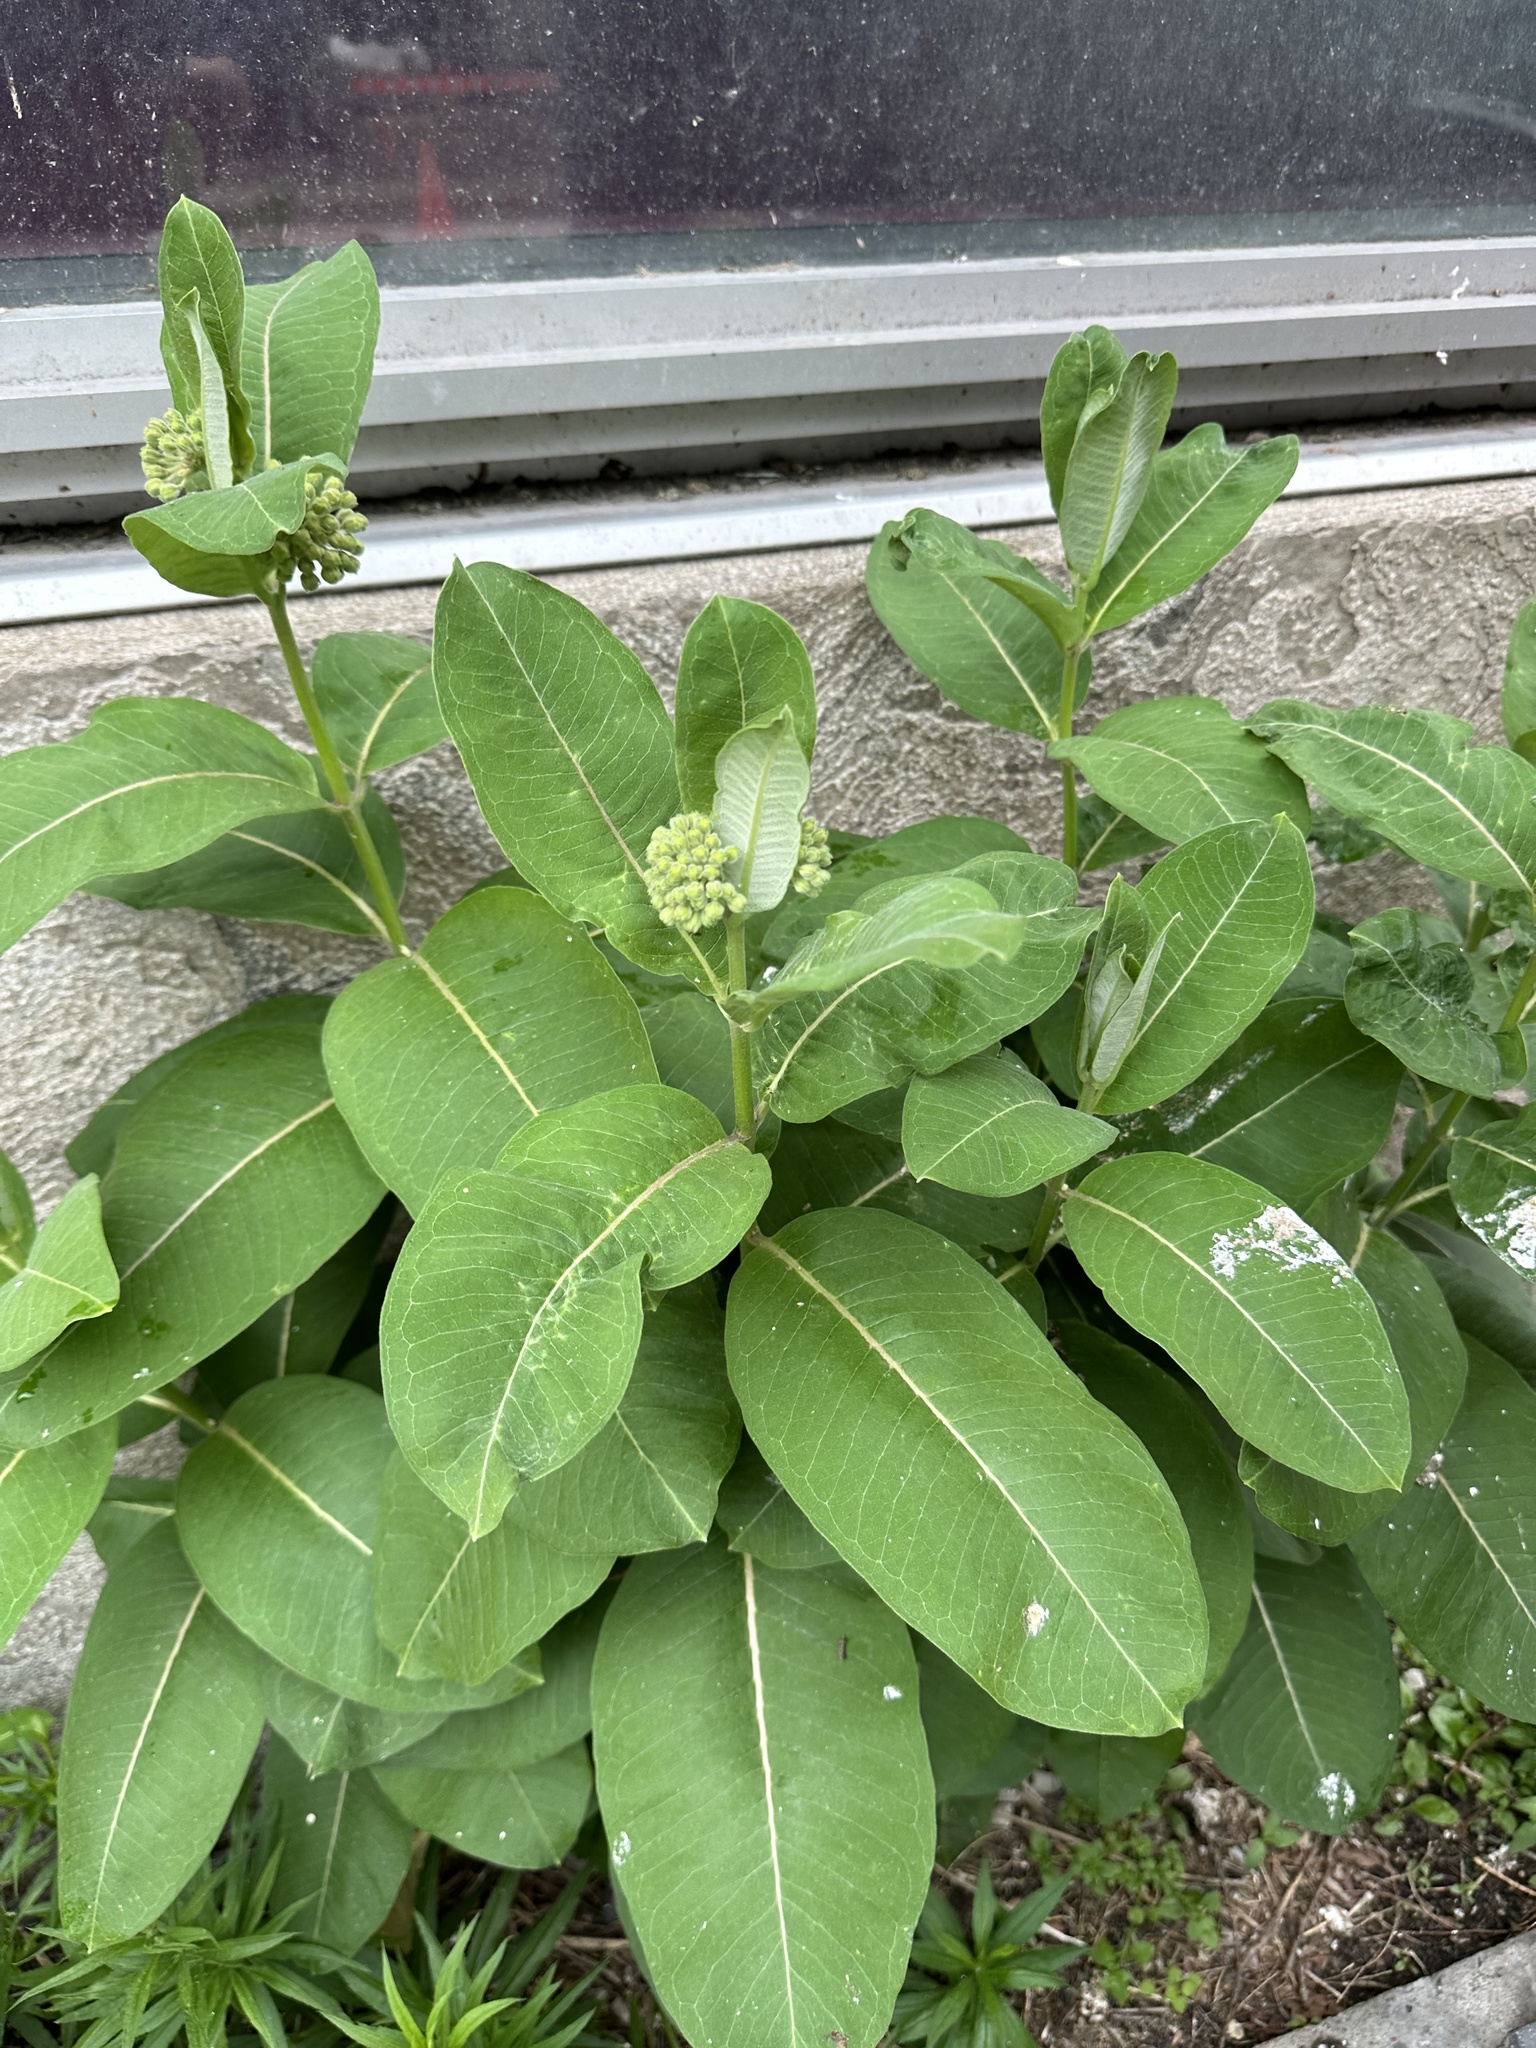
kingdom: Plantae
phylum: Tracheophyta
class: Magnoliopsida
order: Gentianales
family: Apocynaceae
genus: Asclepias
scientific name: Asclepias syriaca
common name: Common milkweed
